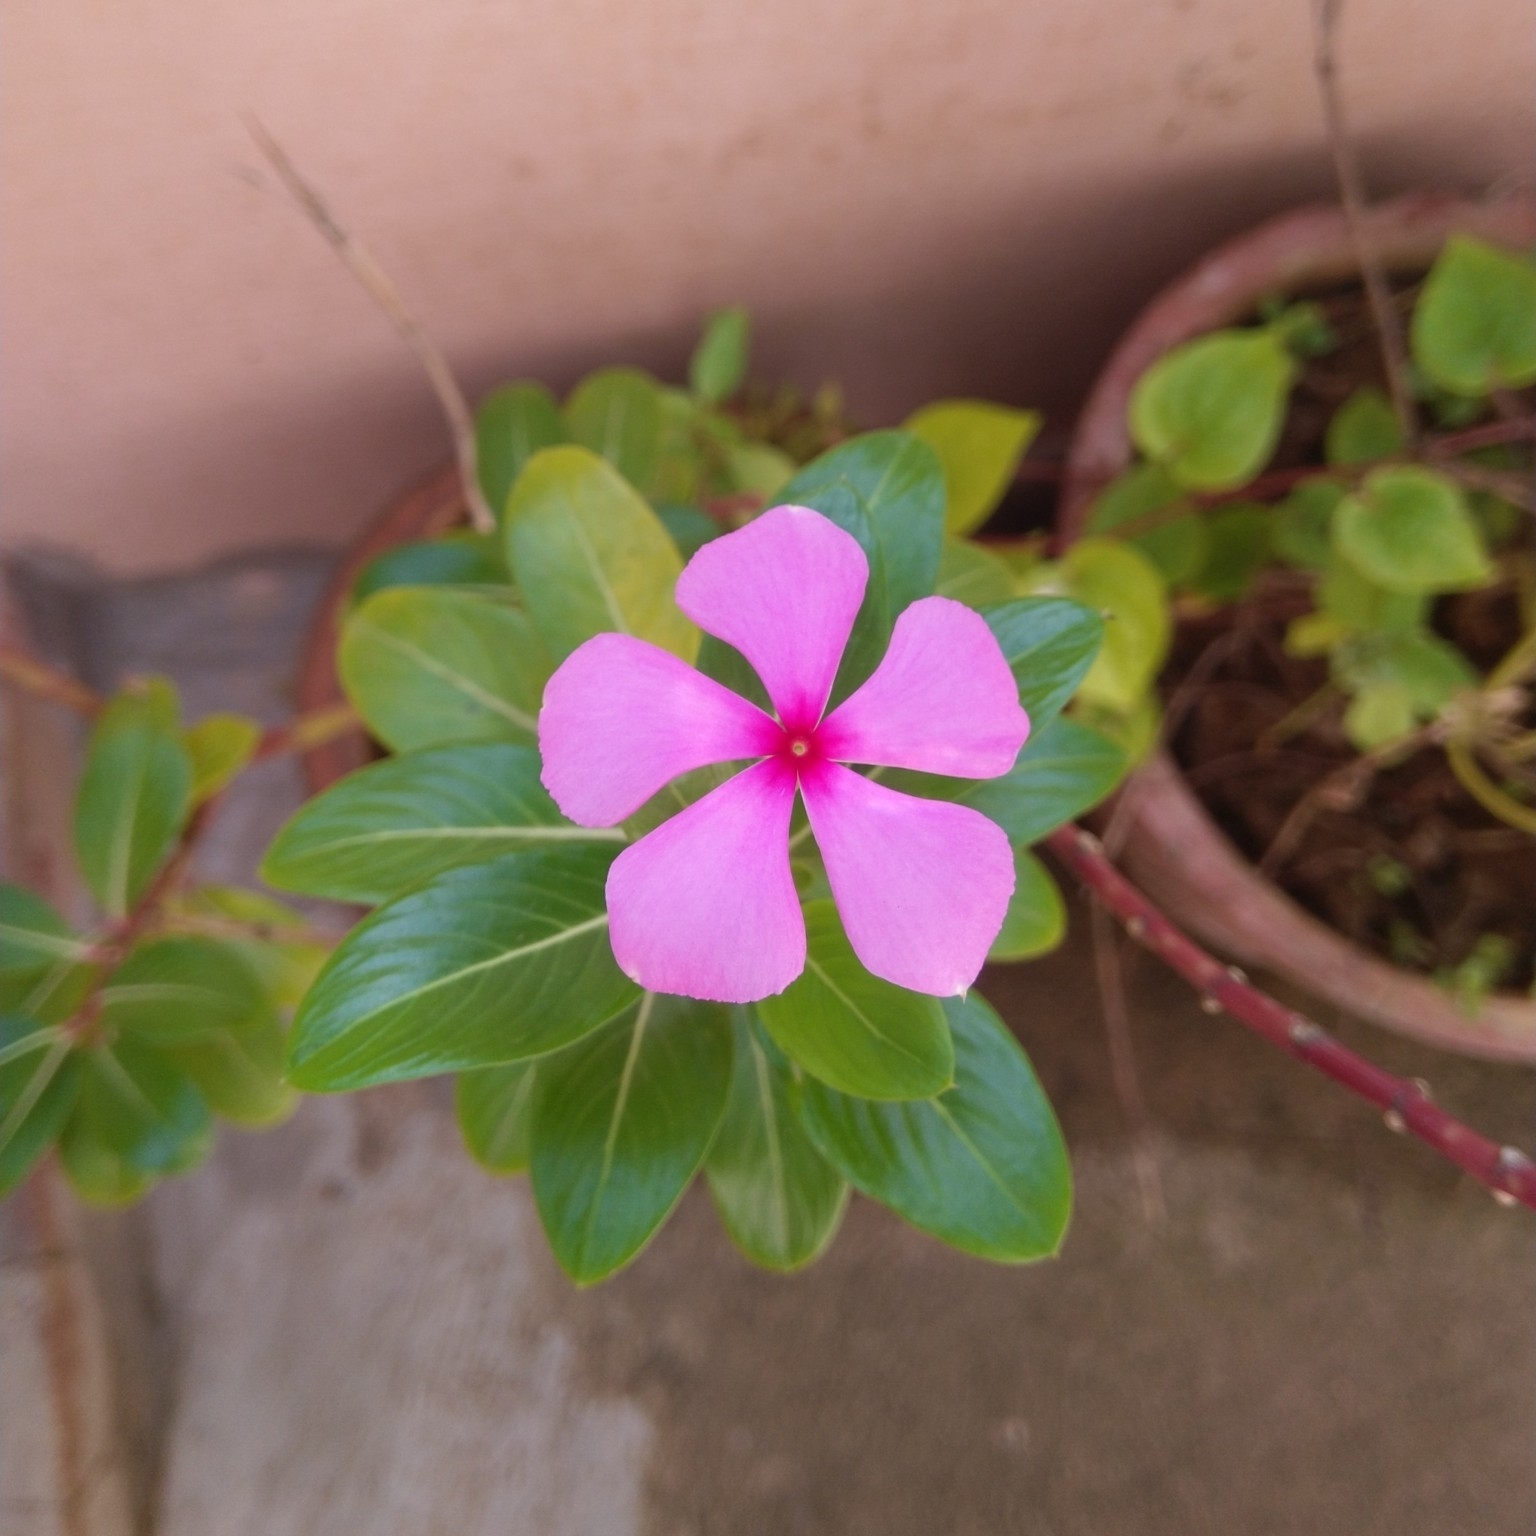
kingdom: Plantae
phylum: Tracheophyta
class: Magnoliopsida
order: Gentianales
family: Apocynaceae
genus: Catharanthus
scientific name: Catharanthus roseus
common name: Madagascar periwinkle
